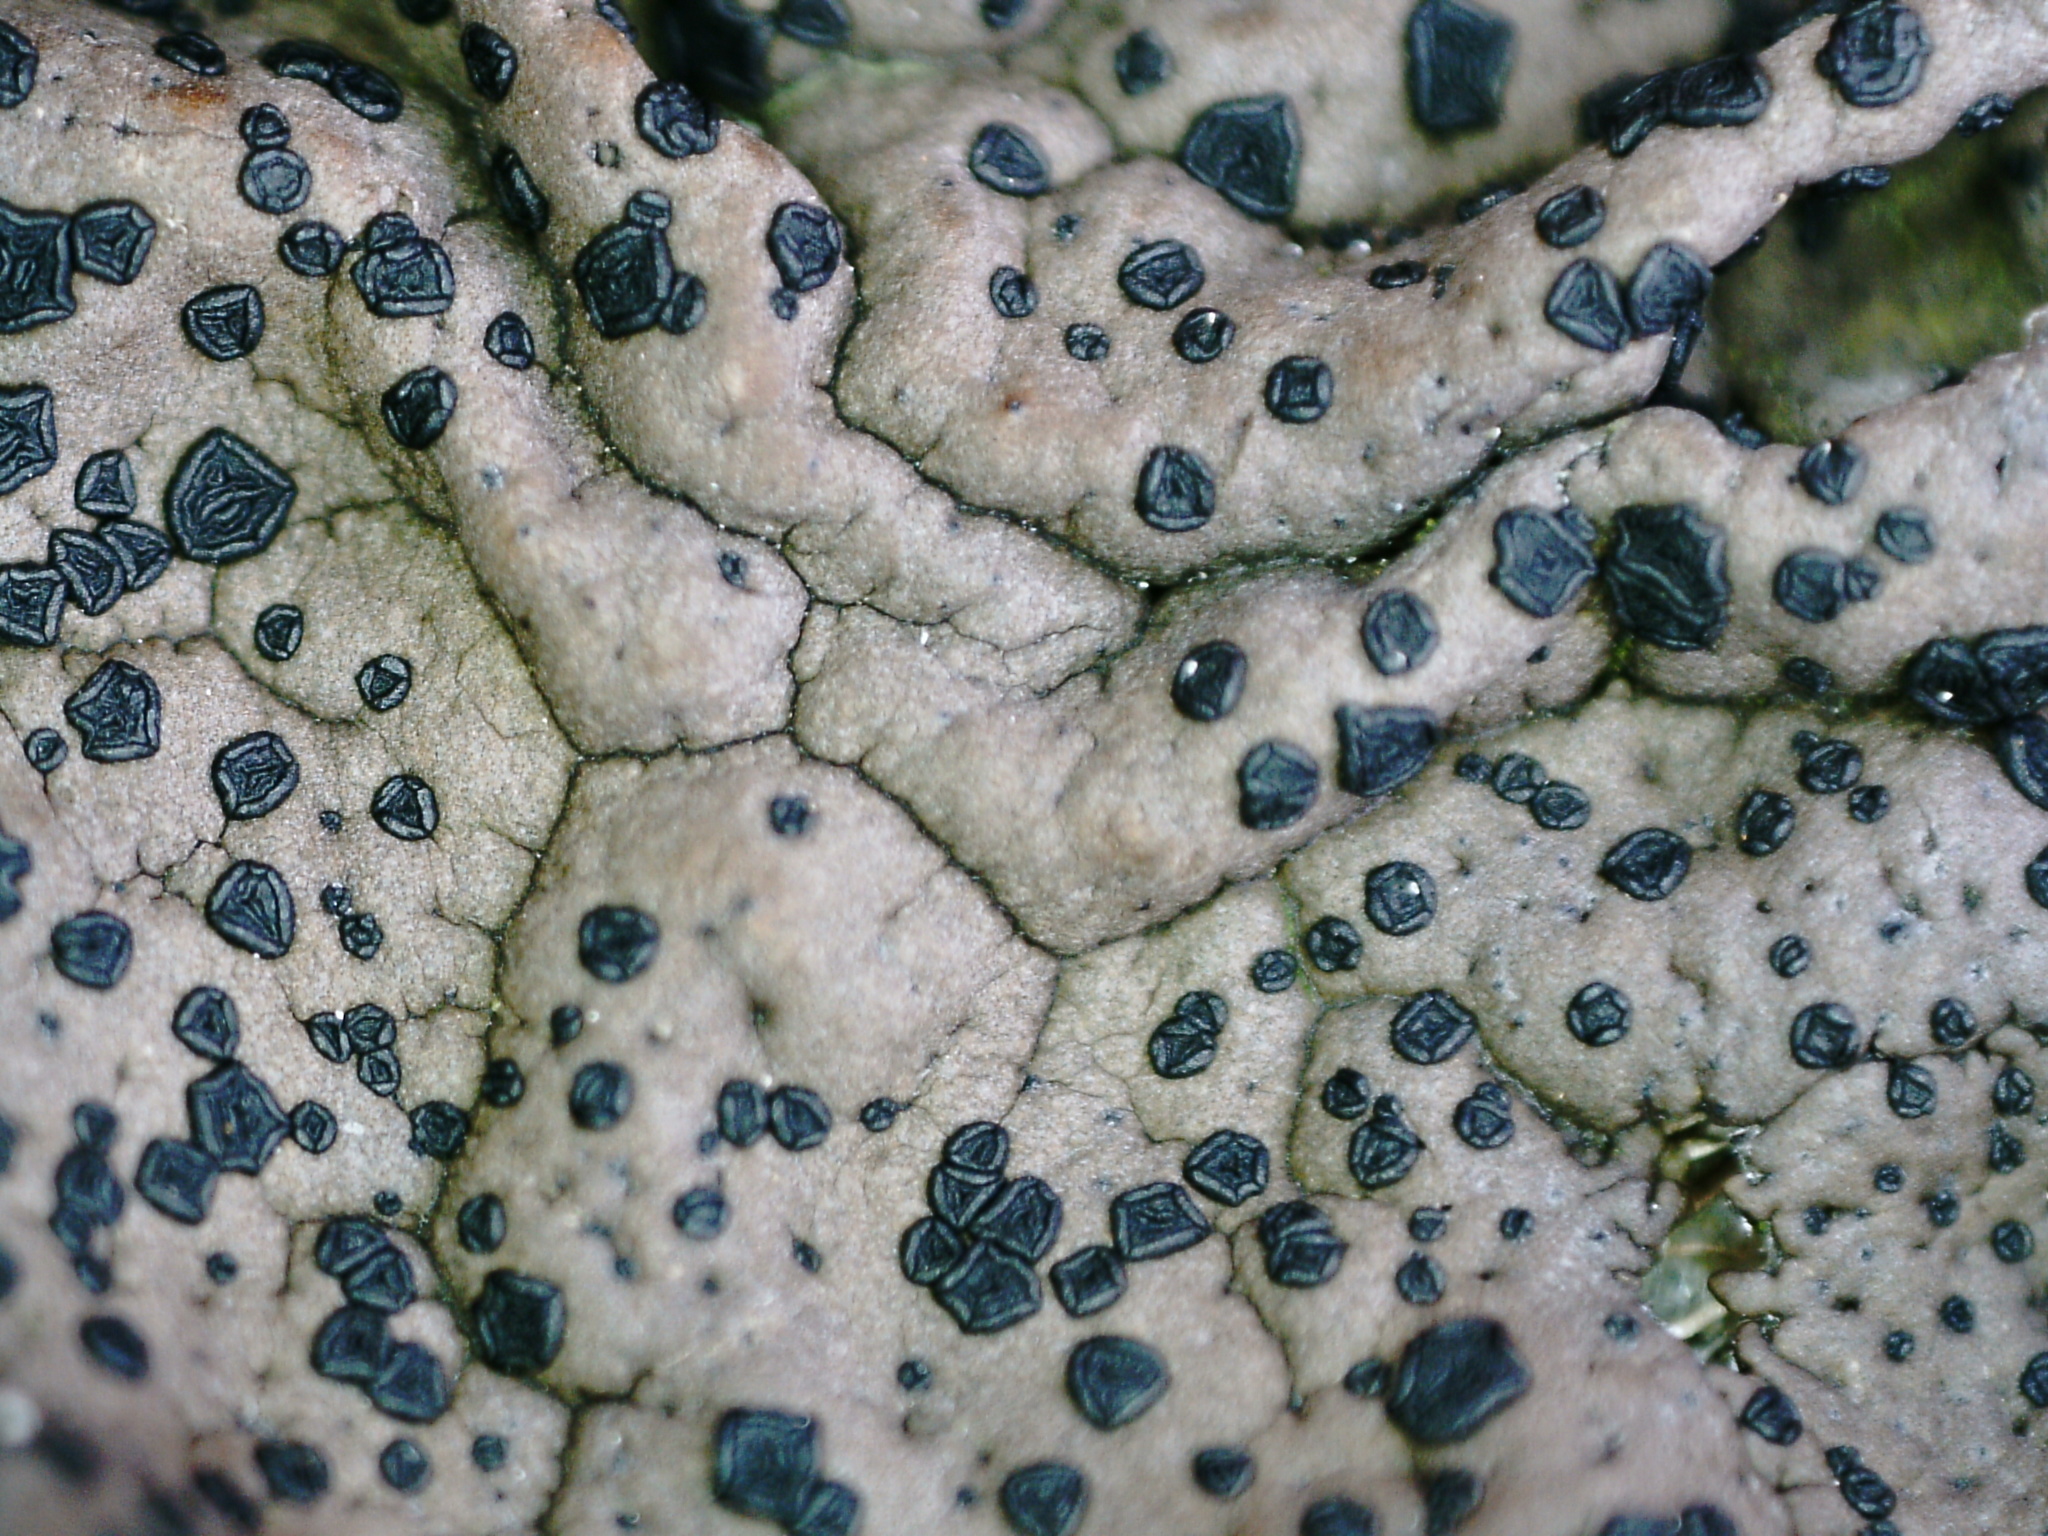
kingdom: Fungi
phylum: Ascomycota
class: Lecanoromycetes
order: Umbilicariales
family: Umbilicariaceae
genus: Umbilicaria
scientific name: Umbilicaria torrefacta
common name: Punctured rock tripe lichen
